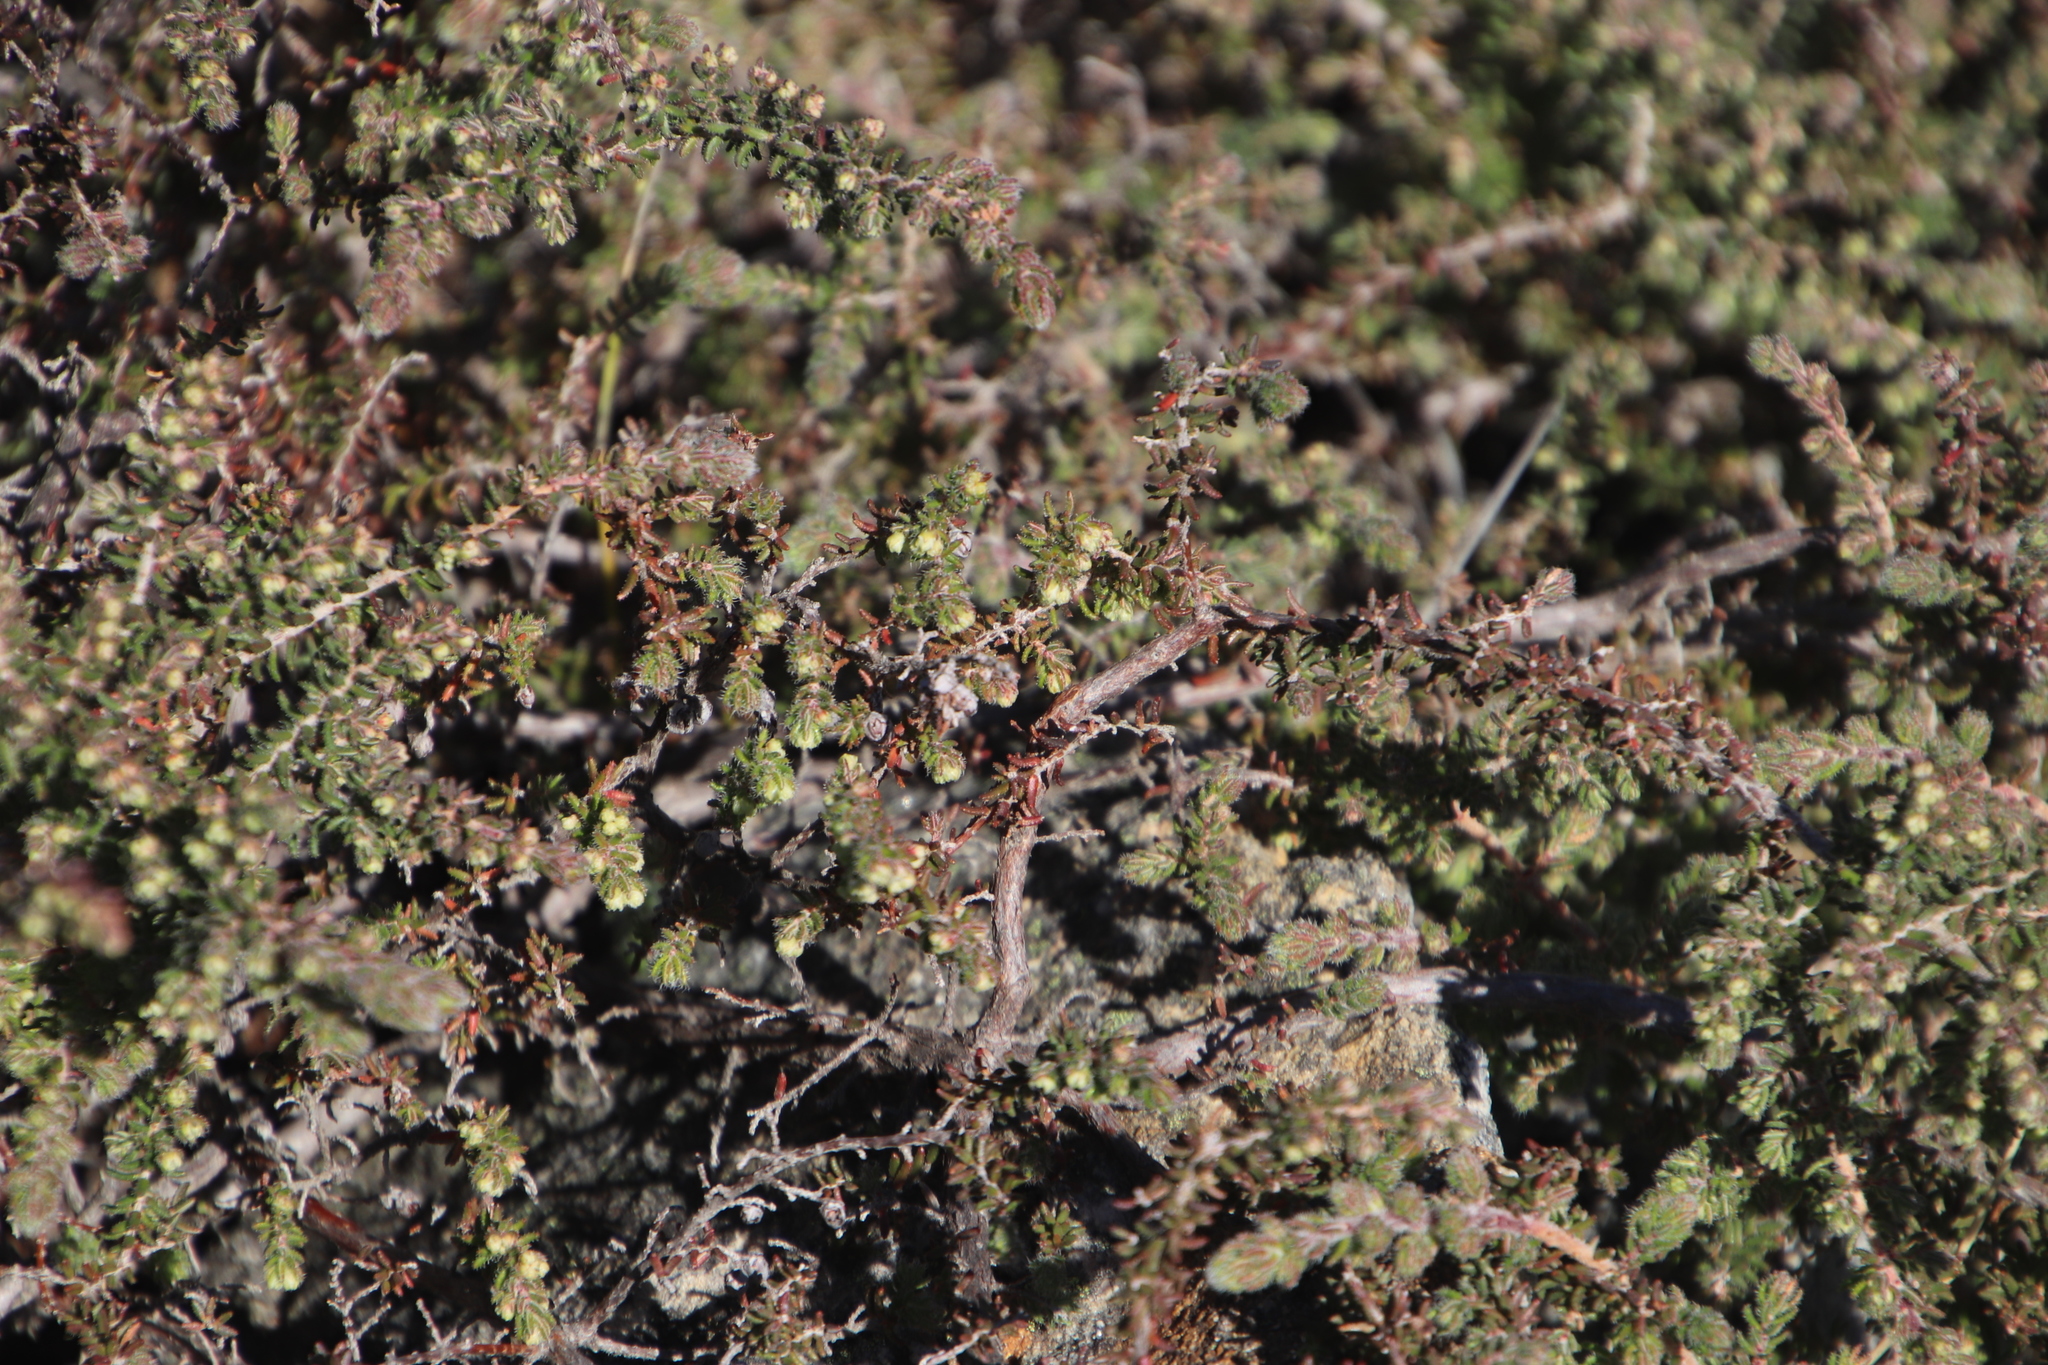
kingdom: Plantae
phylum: Tracheophyta
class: Magnoliopsida
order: Ericales
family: Ericaceae
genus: Erica
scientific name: Erica totta
